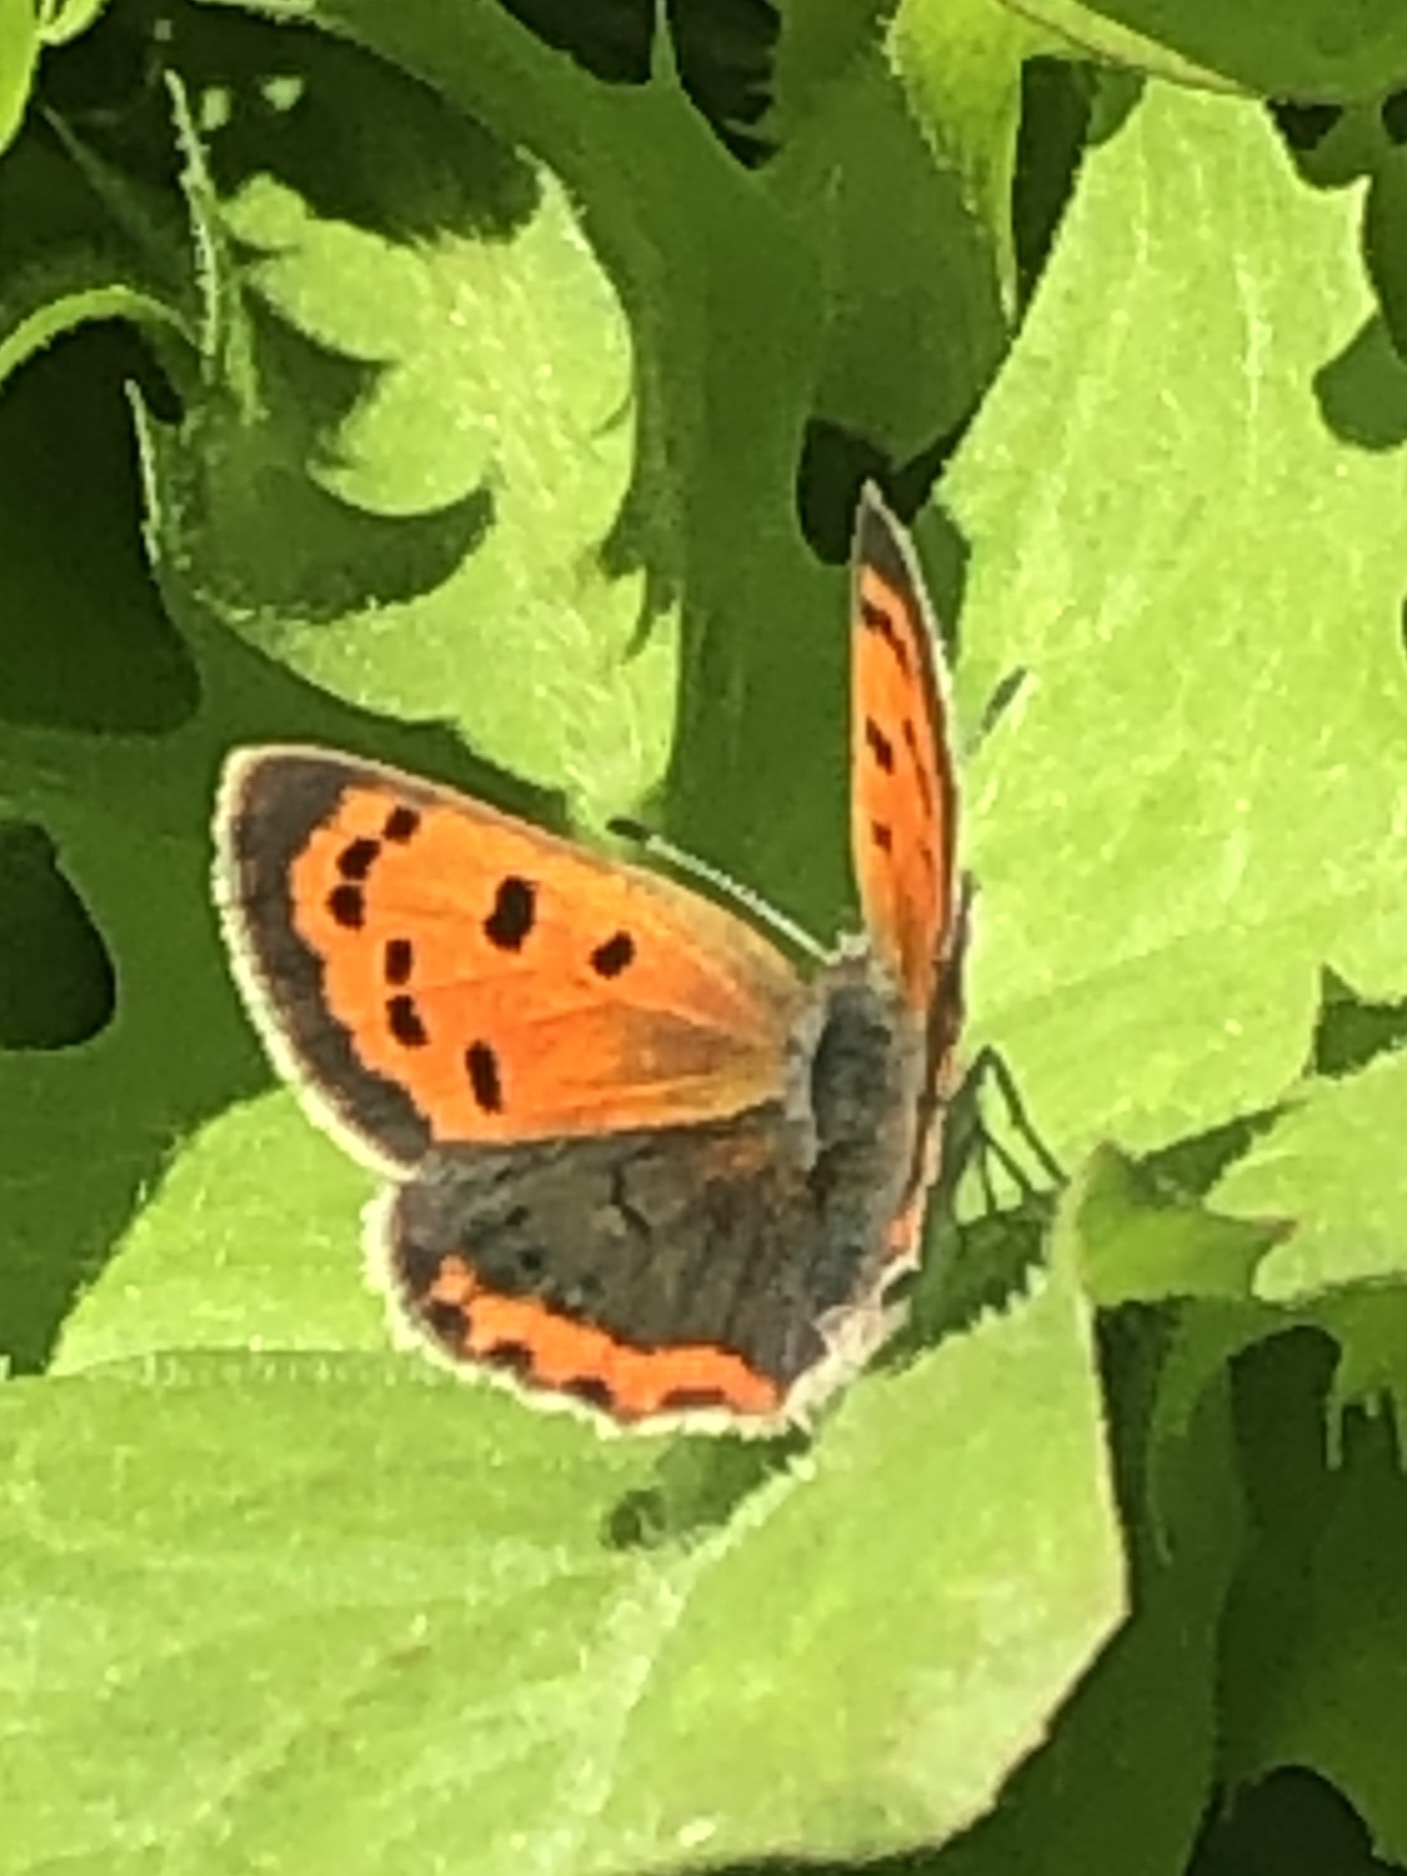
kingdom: Animalia
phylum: Arthropoda
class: Insecta
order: Lepidoptera
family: Lycaenidae
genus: Lycaena
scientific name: Lycaena hypophlaeas
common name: American copper
